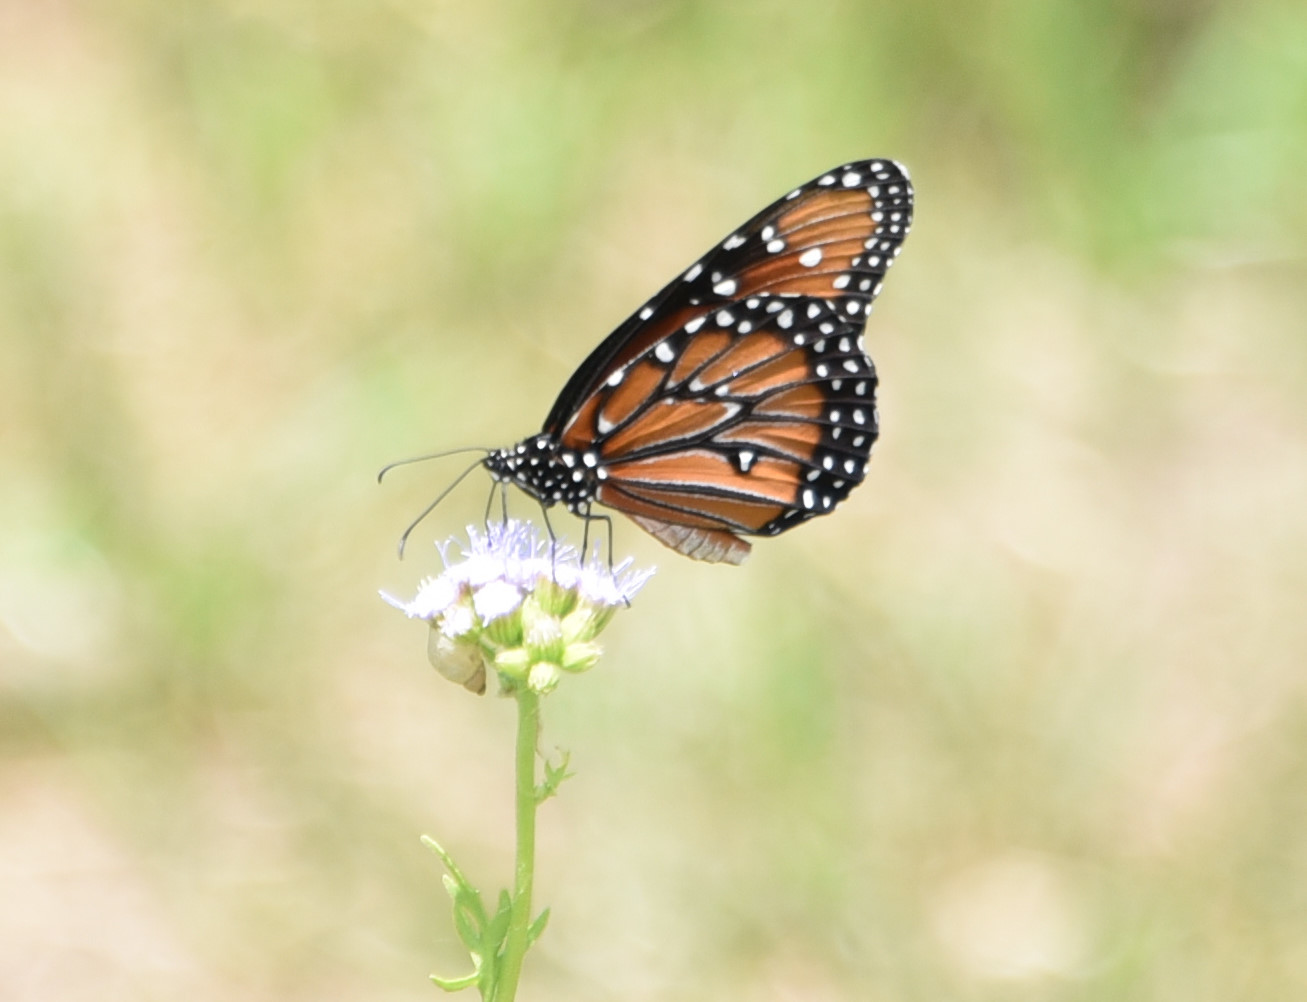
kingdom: Animalia
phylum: Arthropoda
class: Insecta
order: Lepidoptera
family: Nymphalidae
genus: Danaus
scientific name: Danaus gilippus
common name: Queen
